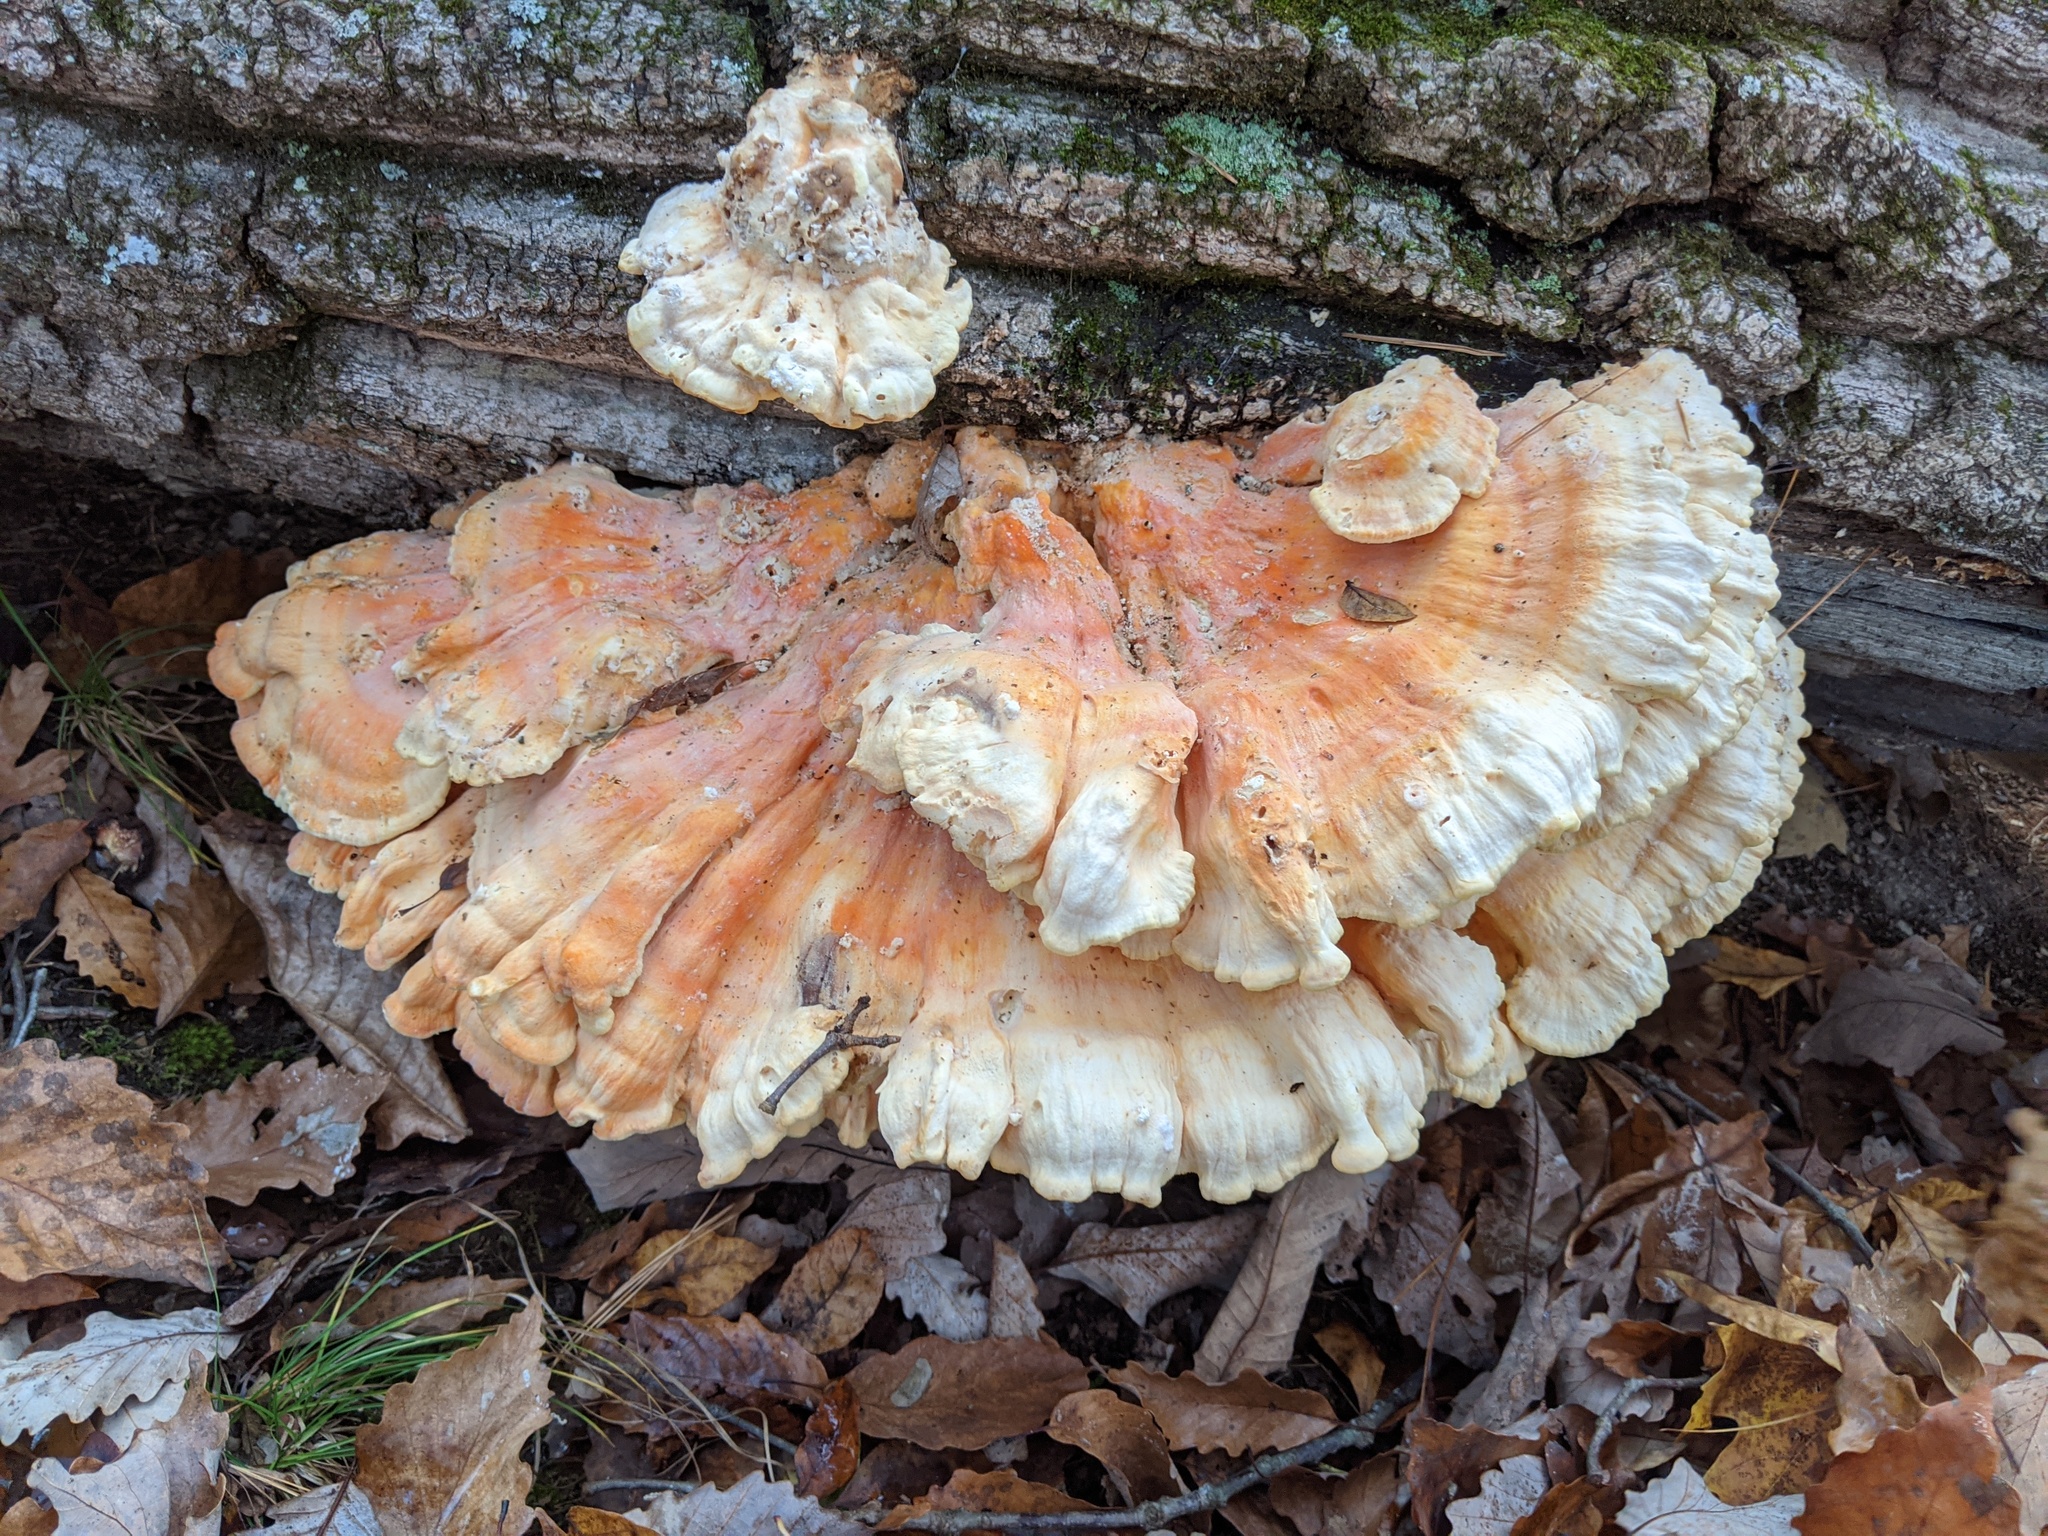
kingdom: Fungi
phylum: Basidiomycota
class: Agaricomycetes
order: Polyporales
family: Laetiporaceae
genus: Laetiporus
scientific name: Laetiporus sulphureus
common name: Chicken of the woods
